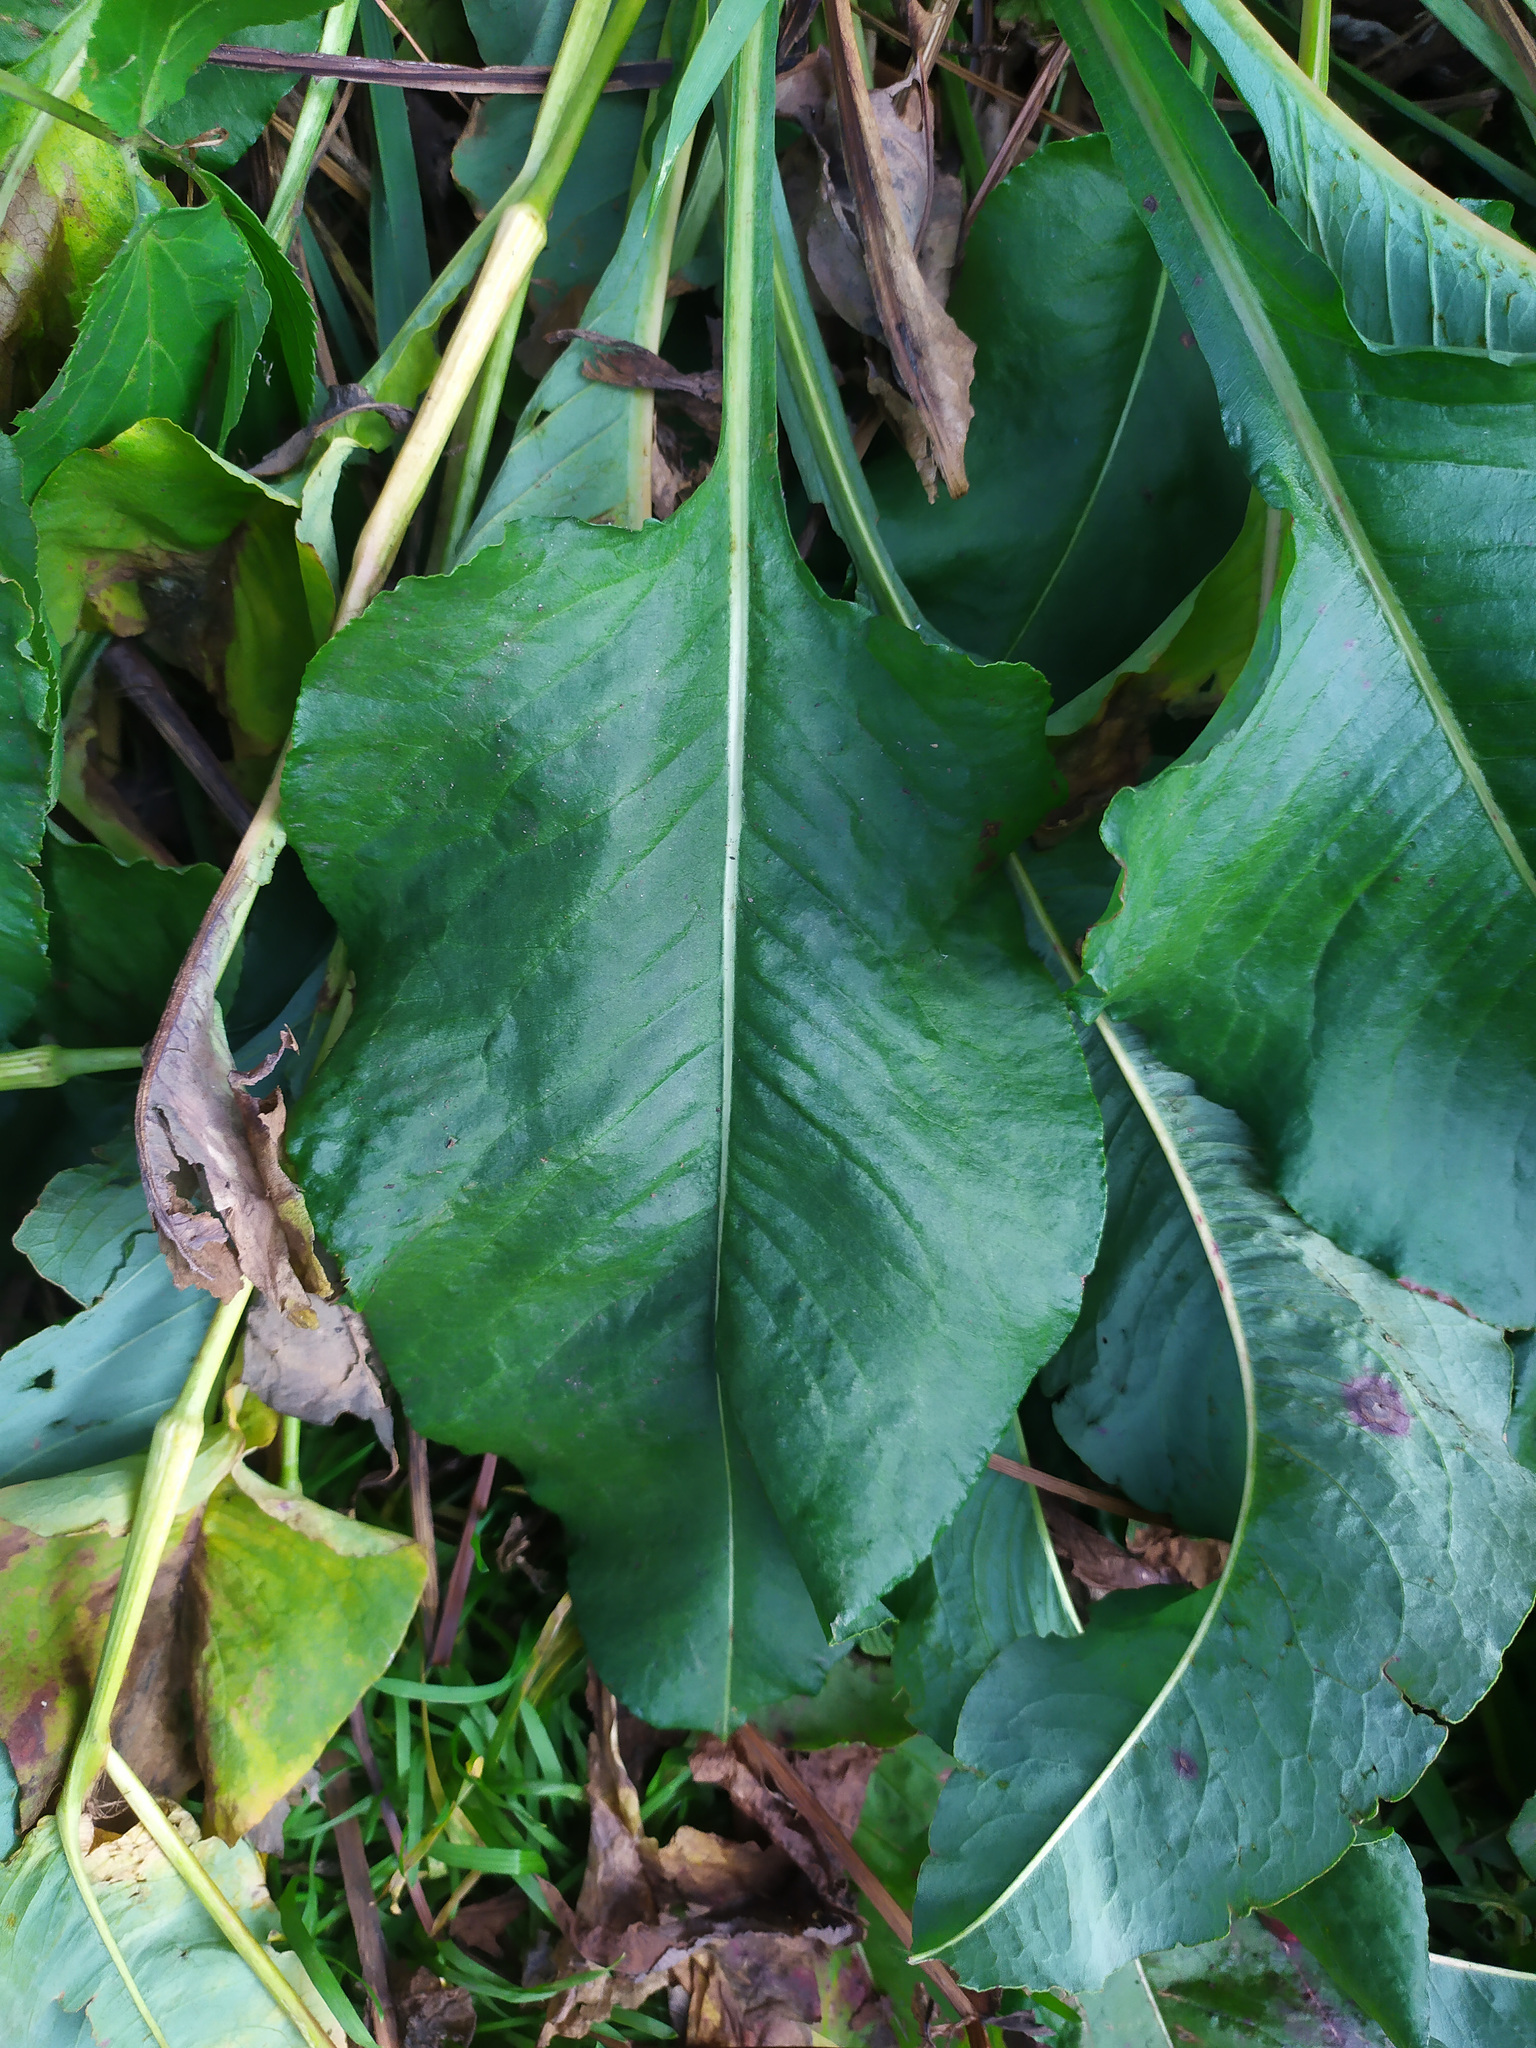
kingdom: Plantae
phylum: Tracheophyta
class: Magnoliopsida
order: Caryophyllales
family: Polygonaceae
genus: Bistorta
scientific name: Bistorta officinalis
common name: Common bistort
